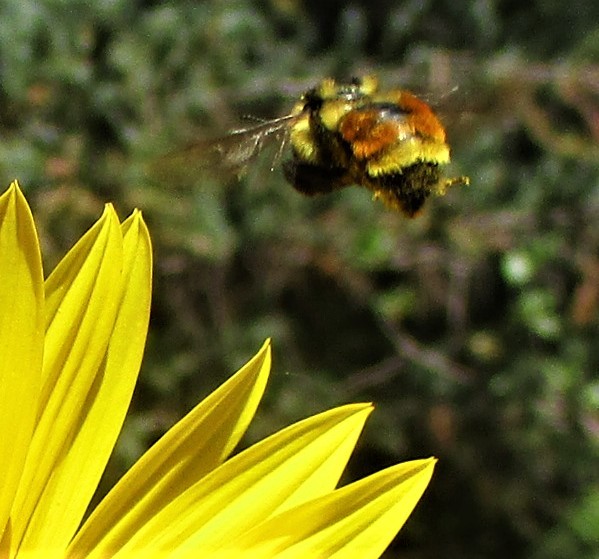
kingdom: Animalia
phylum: Arthropoda
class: Insecta
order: Hymenoptera
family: Apidae
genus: Bombus
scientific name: Bombus huntii
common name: Hunt bumble bee
